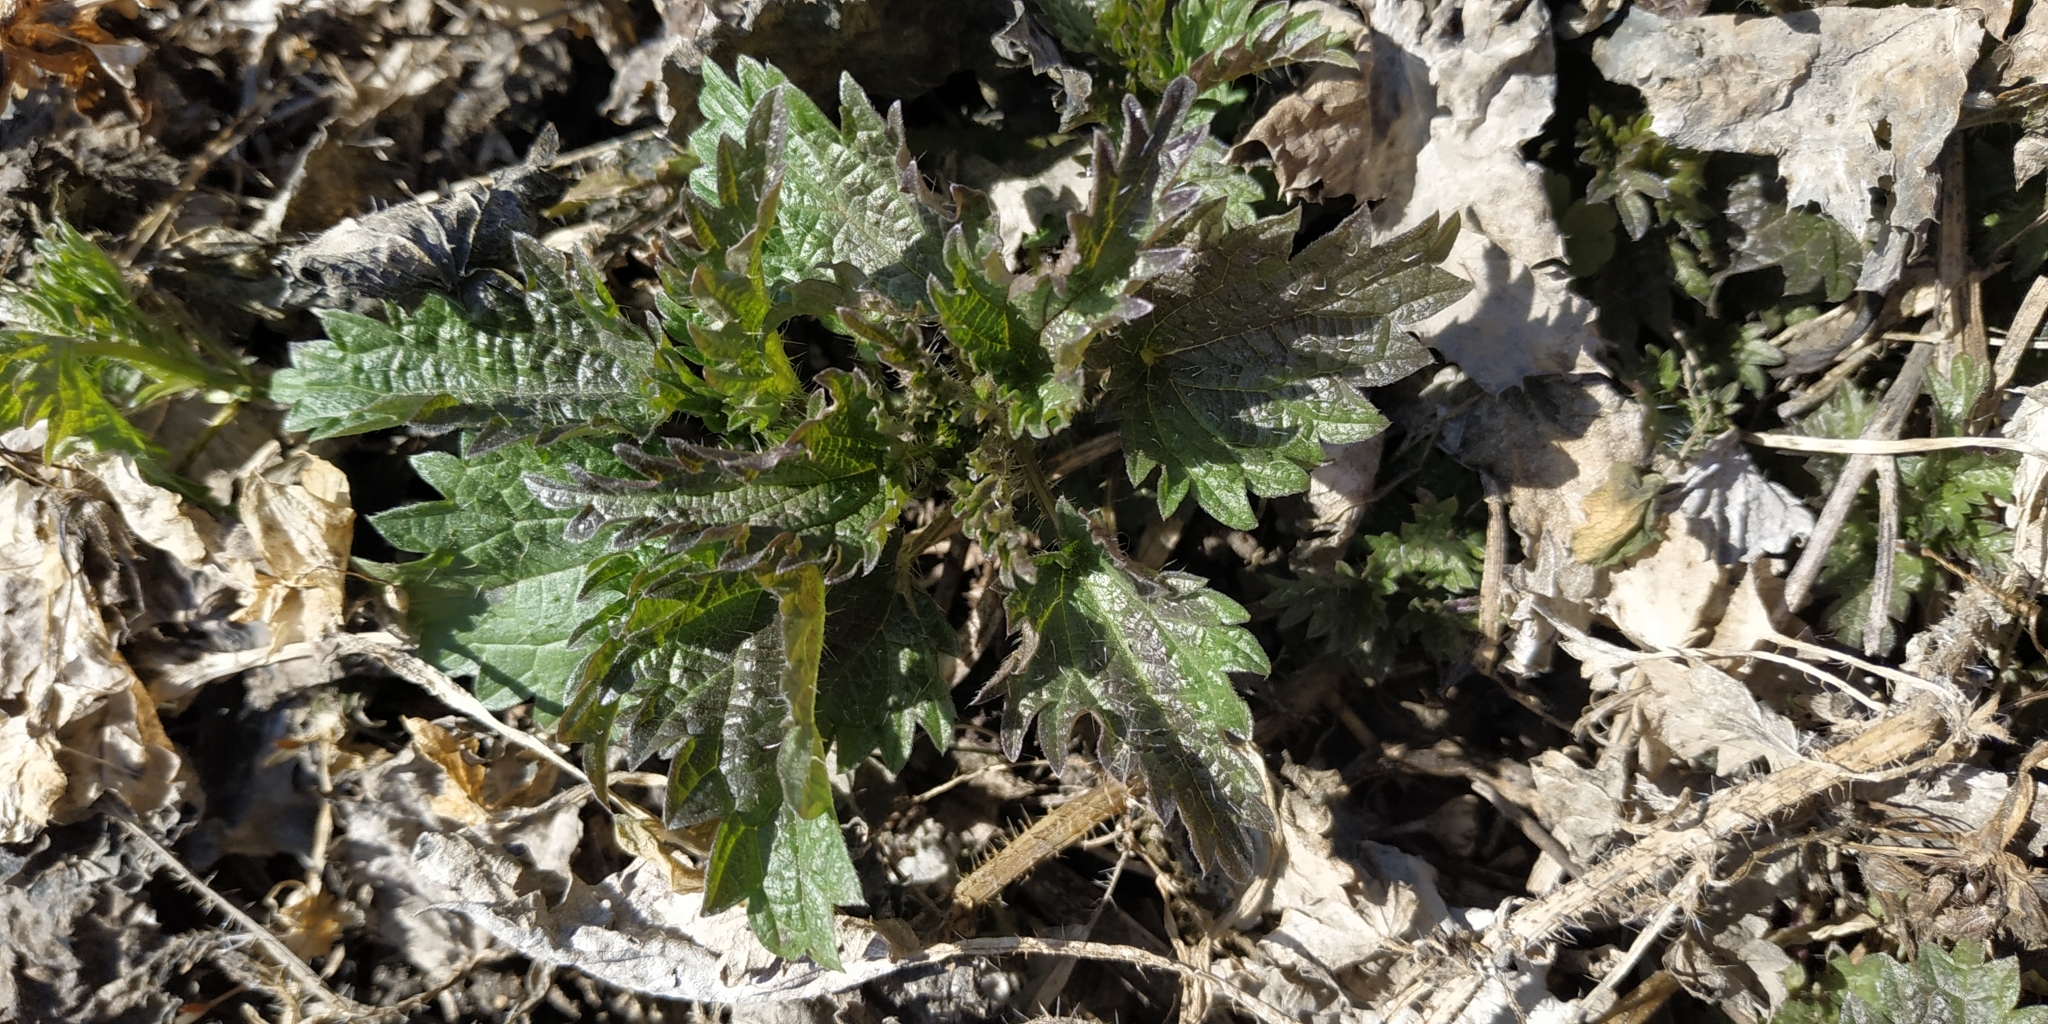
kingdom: Plantae
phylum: Tracheophyta
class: Magnoliopsida
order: Rosales
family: Urticaceae
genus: Urtica
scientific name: Urtica dioica
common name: Common nettle
